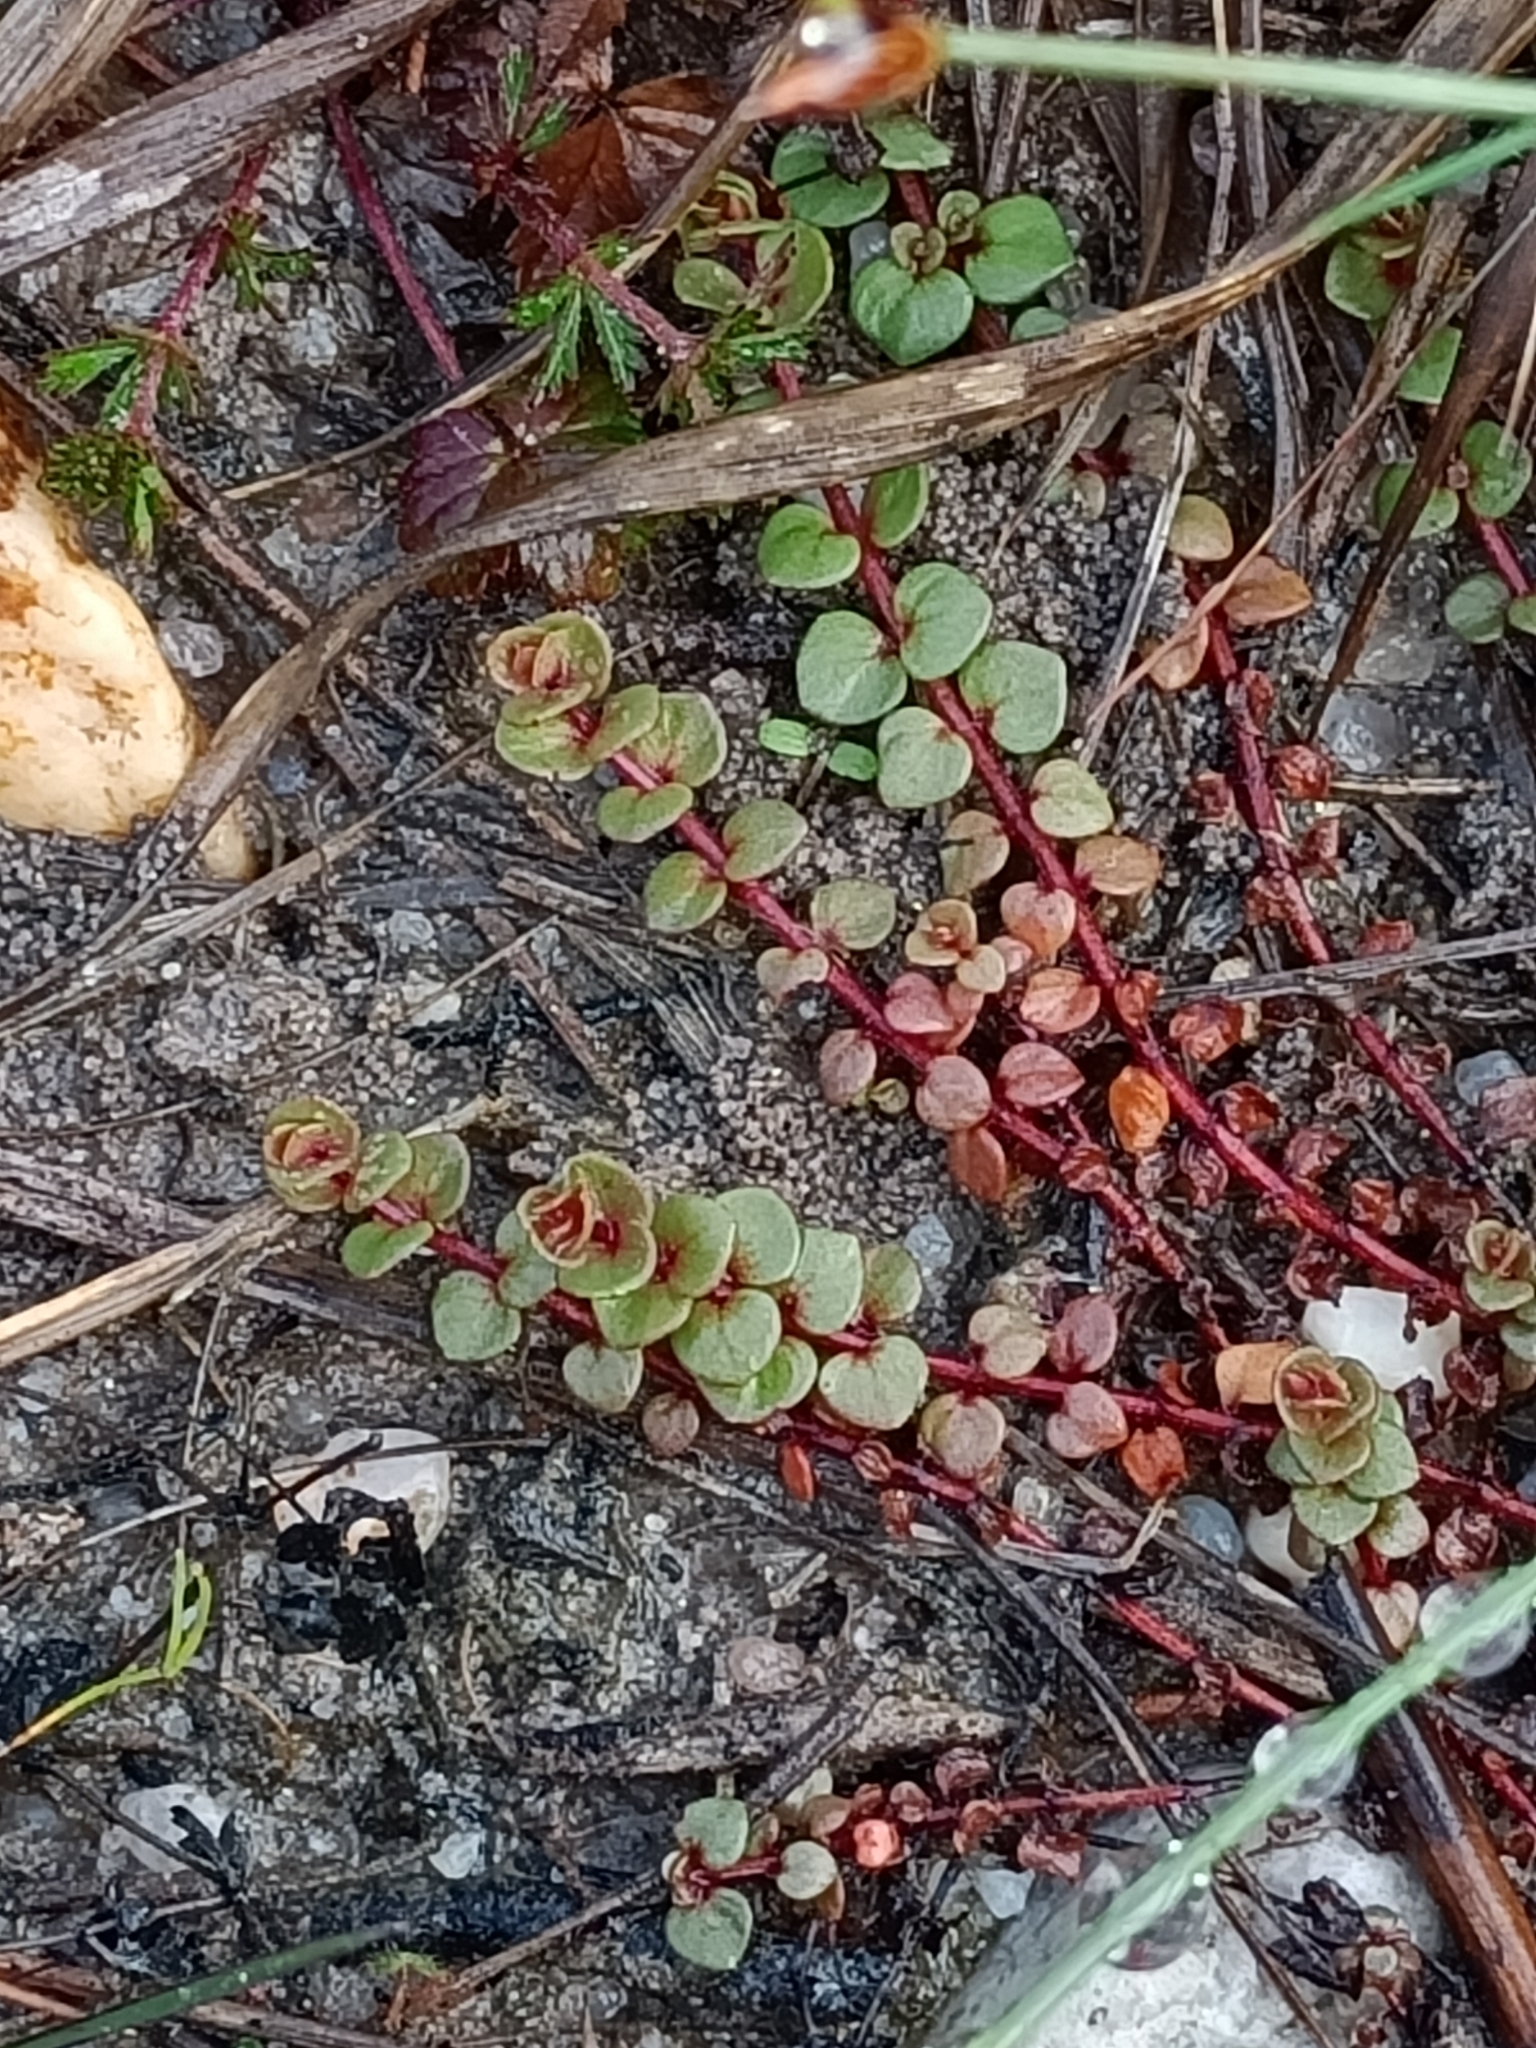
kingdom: Plantae
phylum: Tracheophyta
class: Magnoliopsida
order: Ericales
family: Primulaceae
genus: Lysimachia
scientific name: Lysimachia tenella
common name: European bog pimpernel
